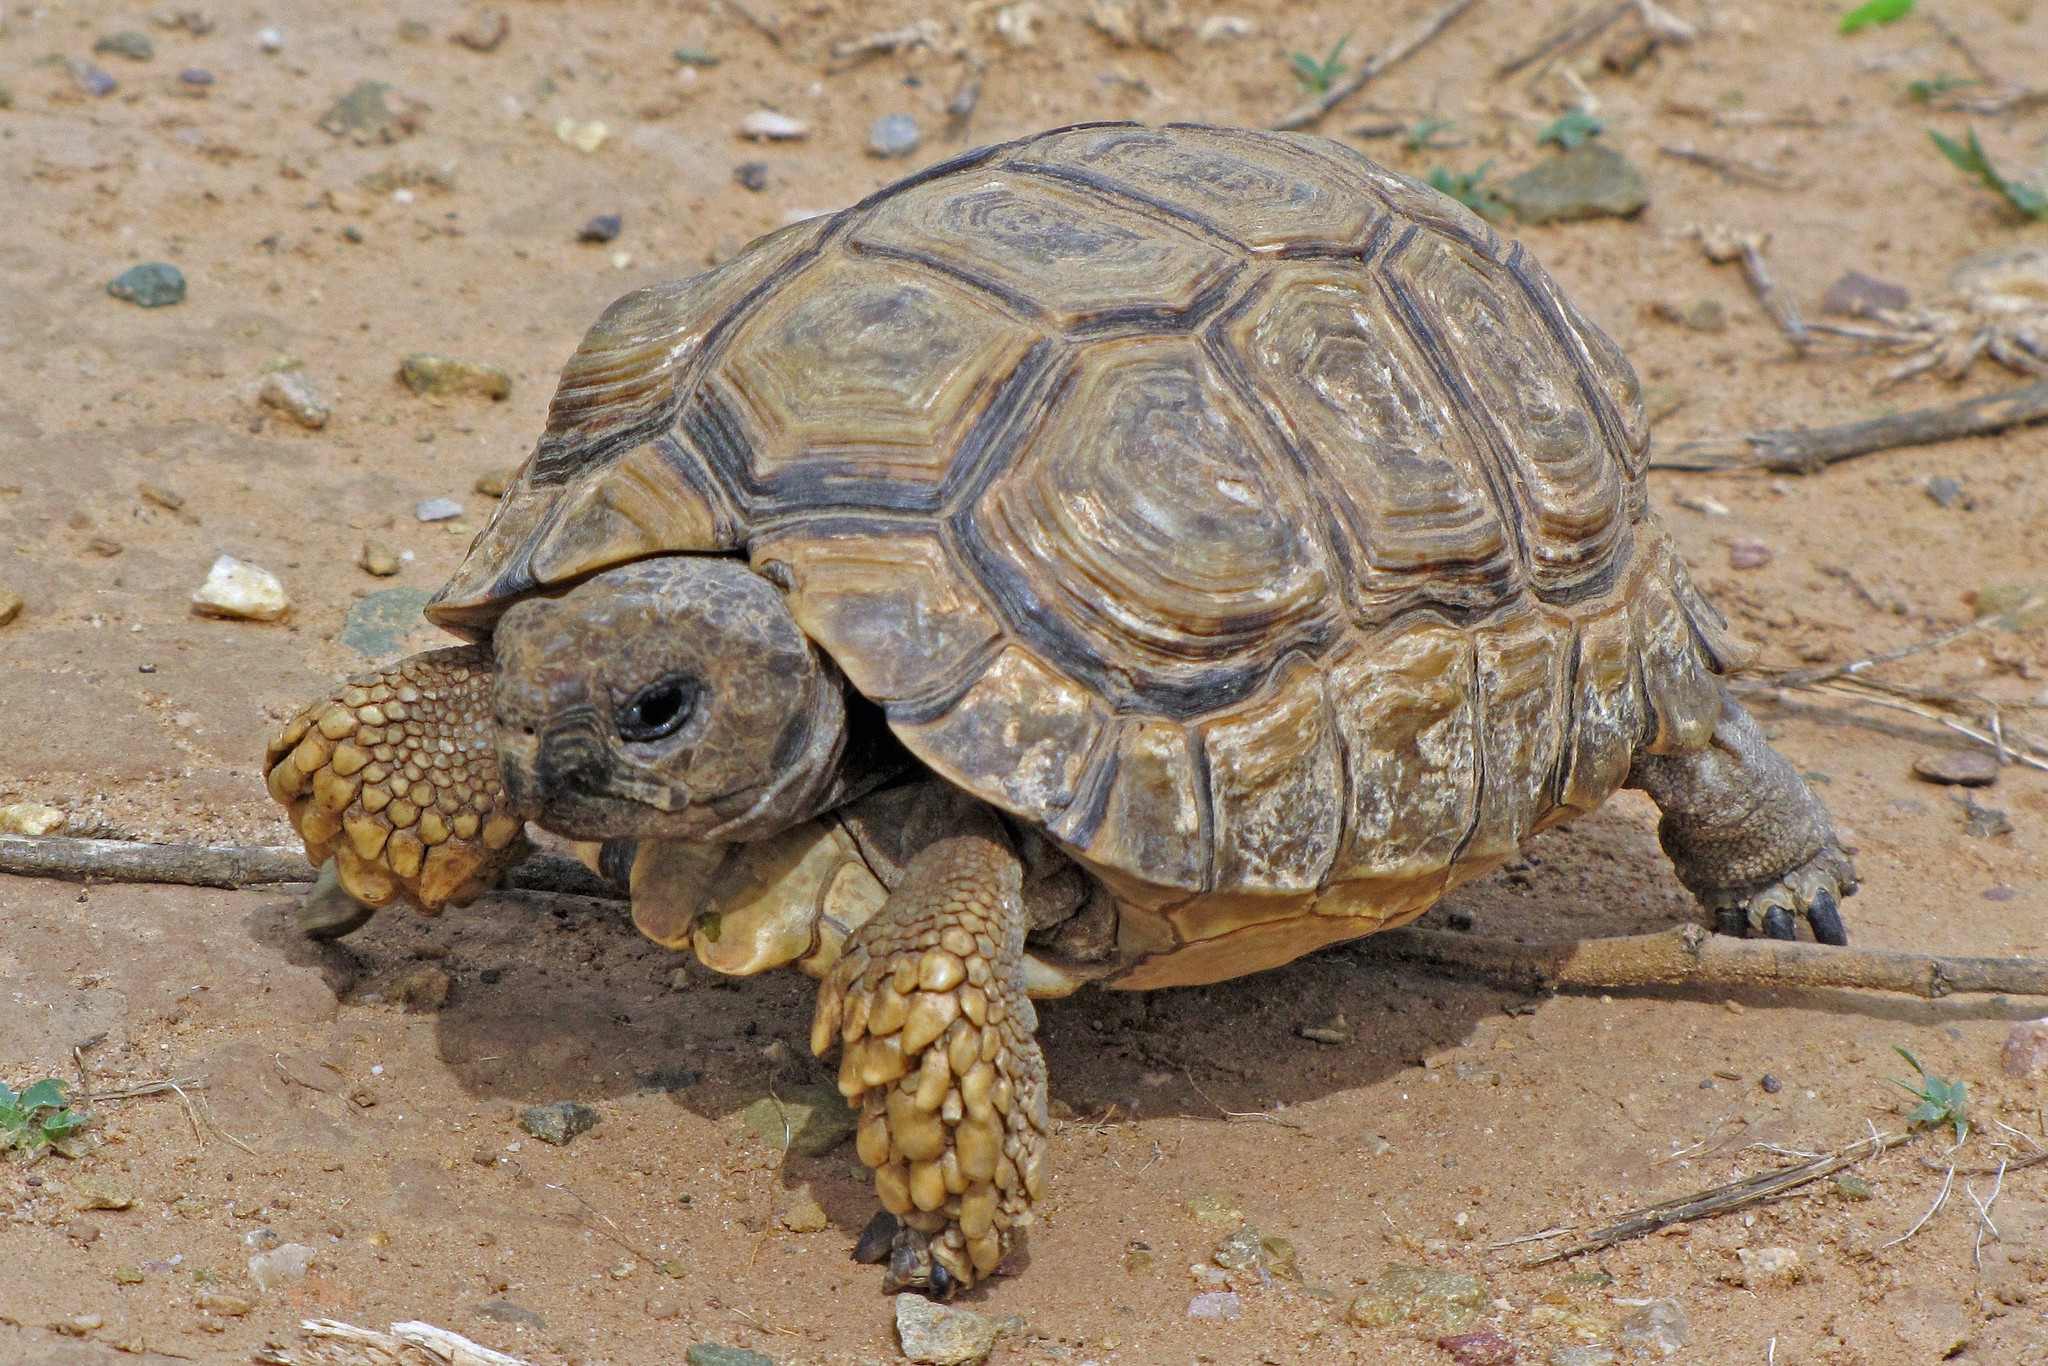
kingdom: Animalia
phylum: Chordata
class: Testudines
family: Testudinidae
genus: Chelonoidis
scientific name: Chelonoidis chilensis
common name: Chaco tortoise
